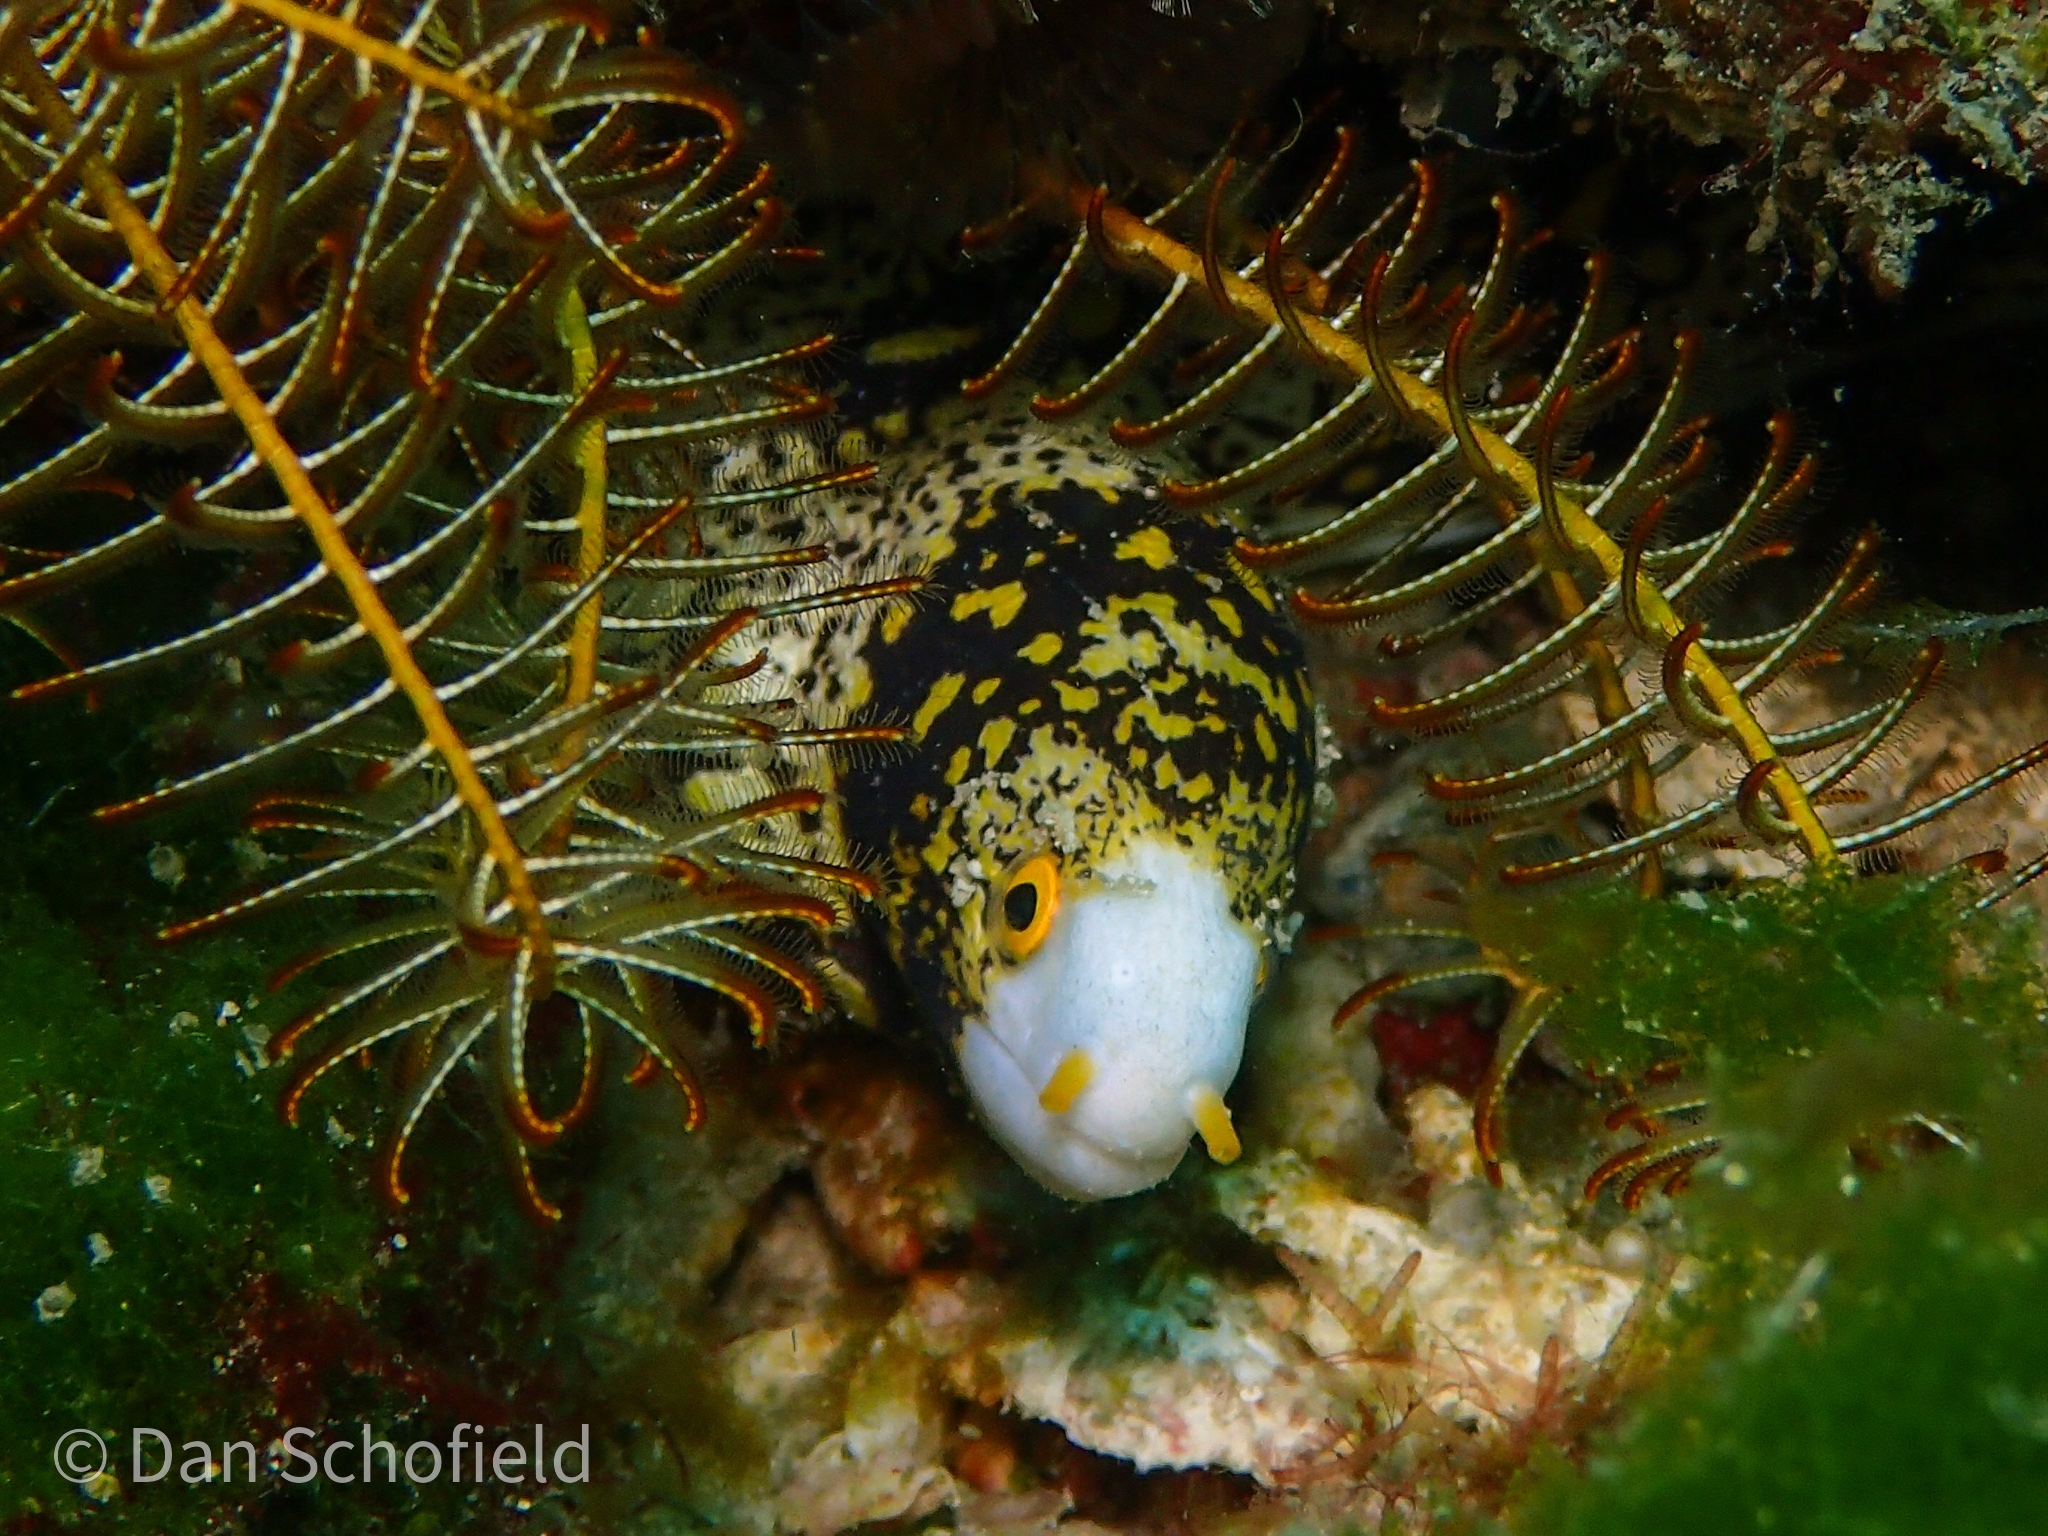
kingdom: Animalia
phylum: Chordata
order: Anguilliformes
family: Muraenidae
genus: Echidna
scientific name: Echidna nebulosa
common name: Snowflake moray
